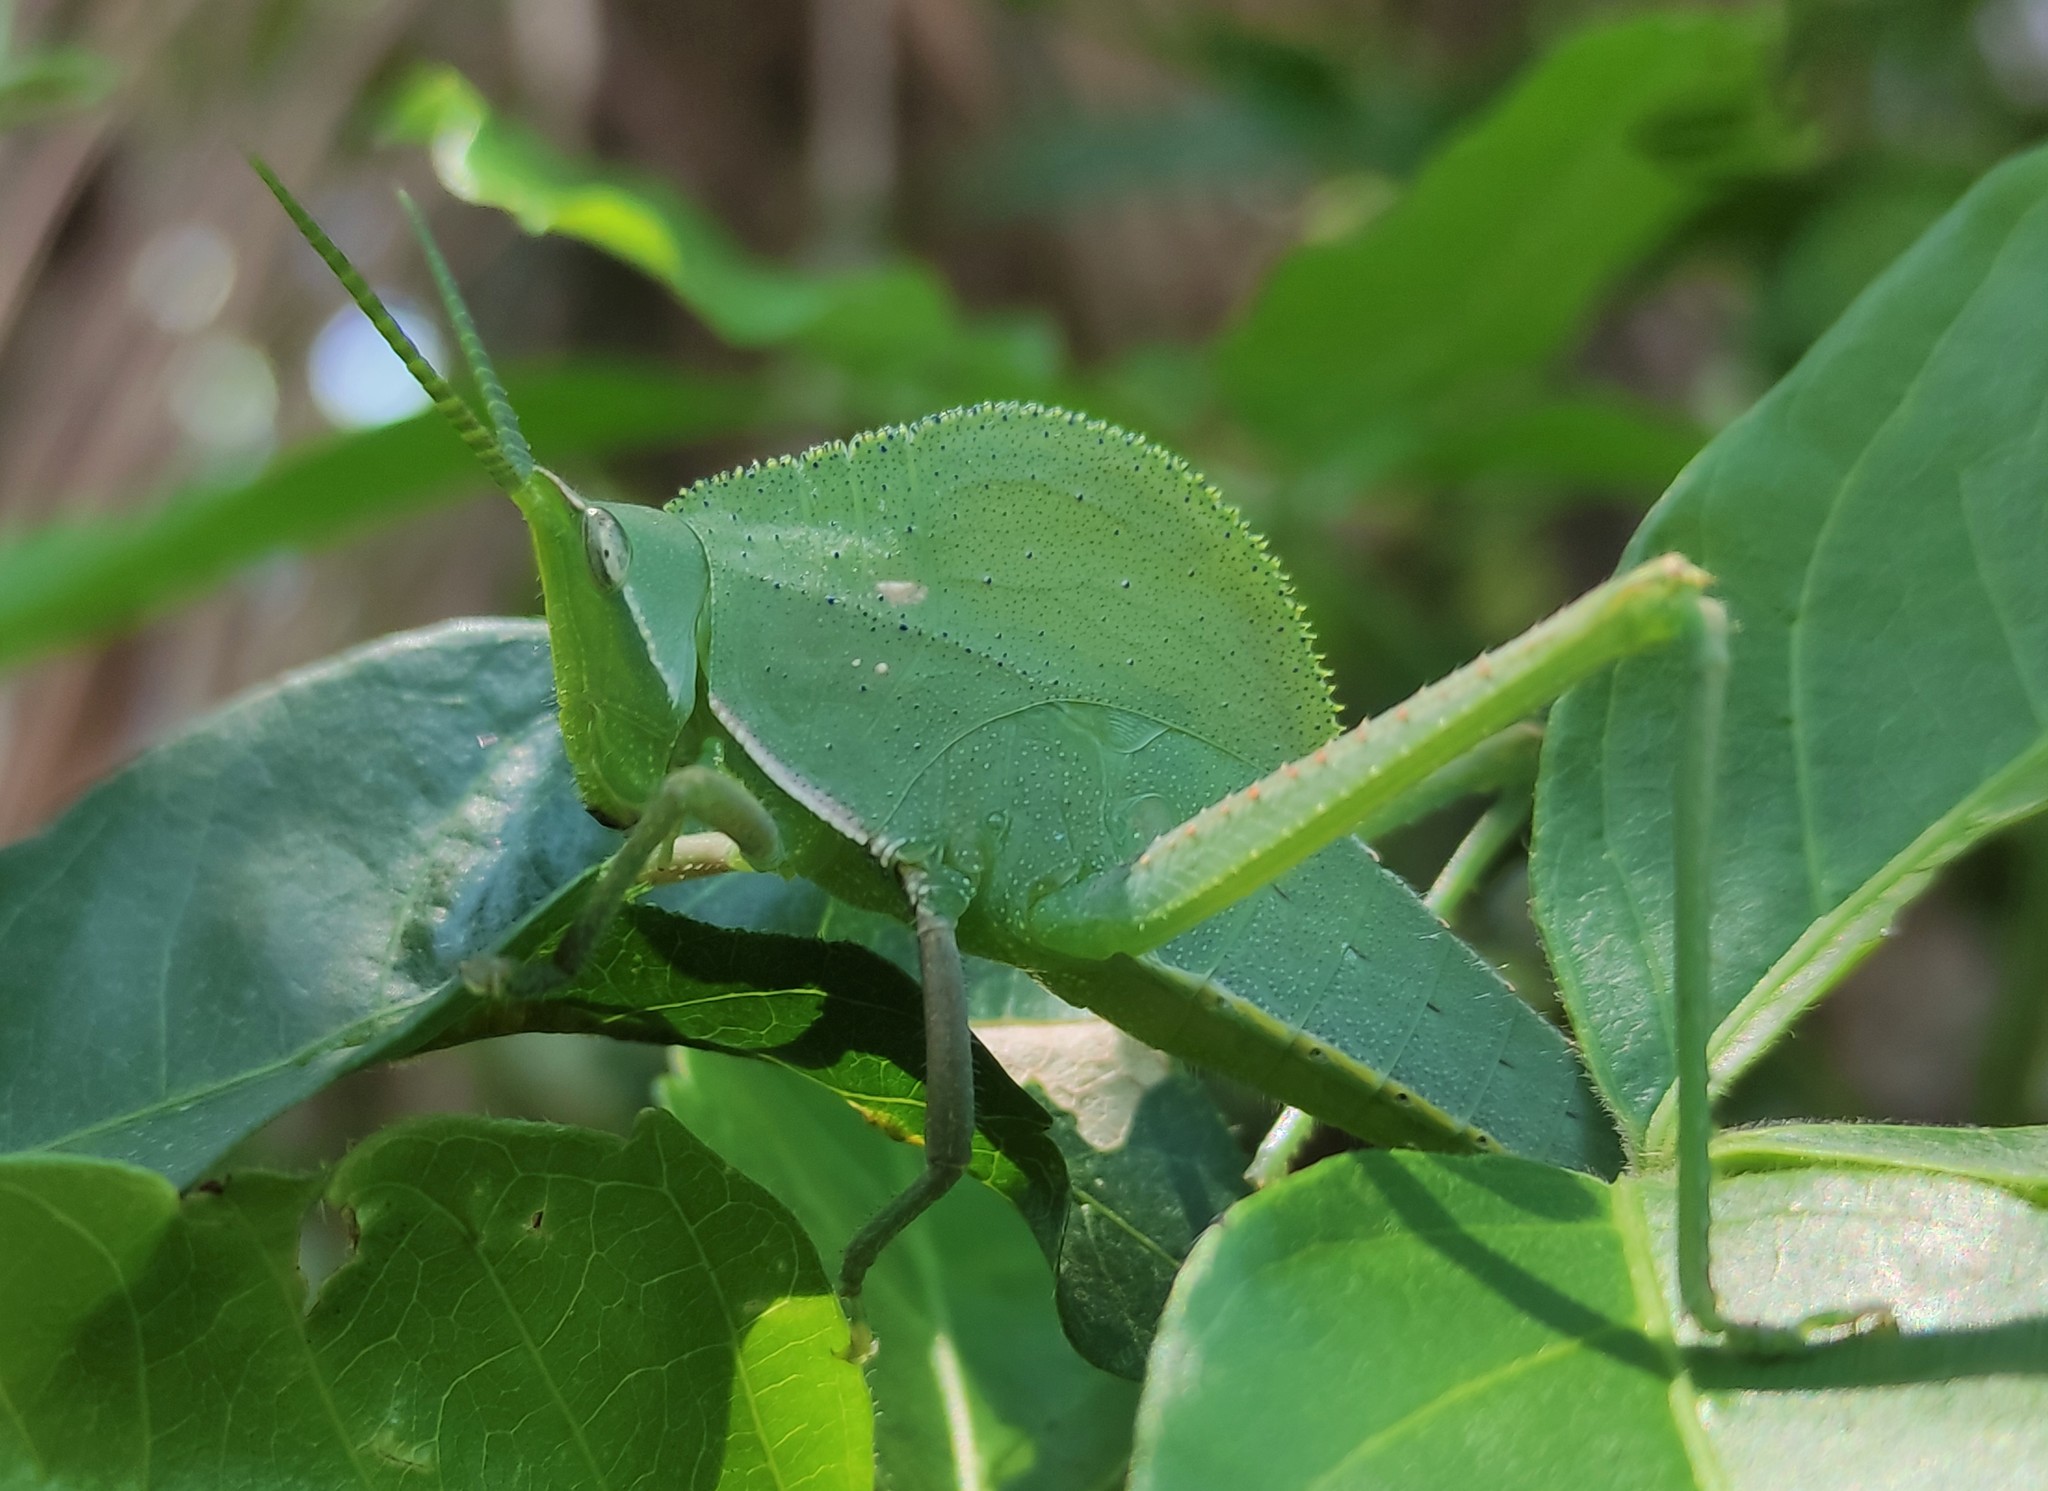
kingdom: Animalia
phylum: Arthropoda
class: Insecta
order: Orthoptera
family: Romaleidae
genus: Prionolopha
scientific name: Prionolopha serrata
